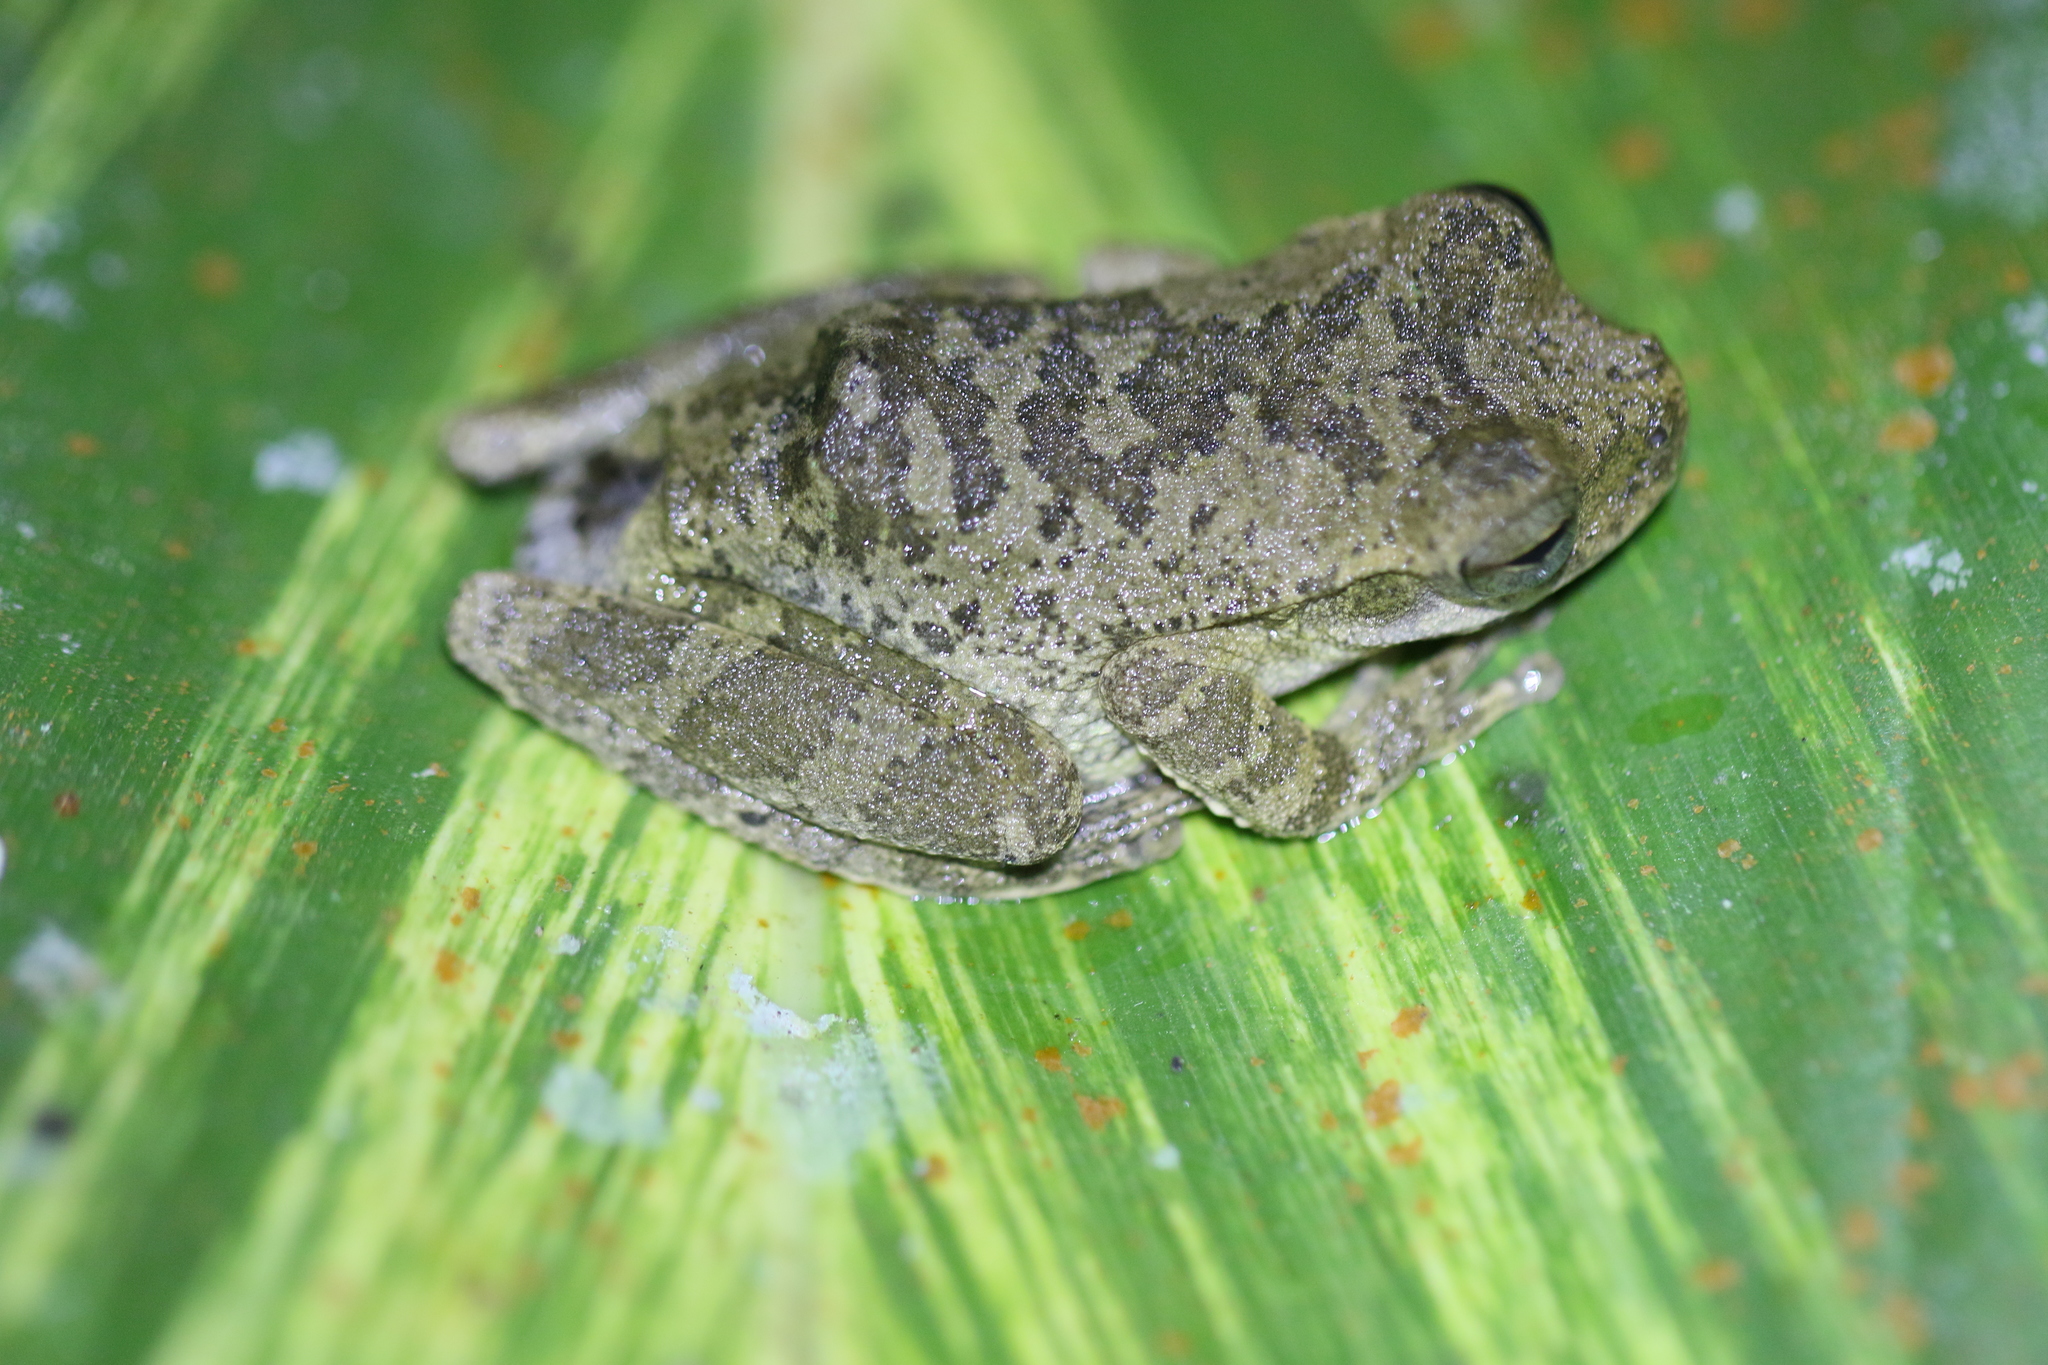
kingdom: Animalia
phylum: Chordata
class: Amphibia
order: Anura
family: Hylidae
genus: Smilisca
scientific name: Smilisca sordida
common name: Veragua cross-banded treefrog
